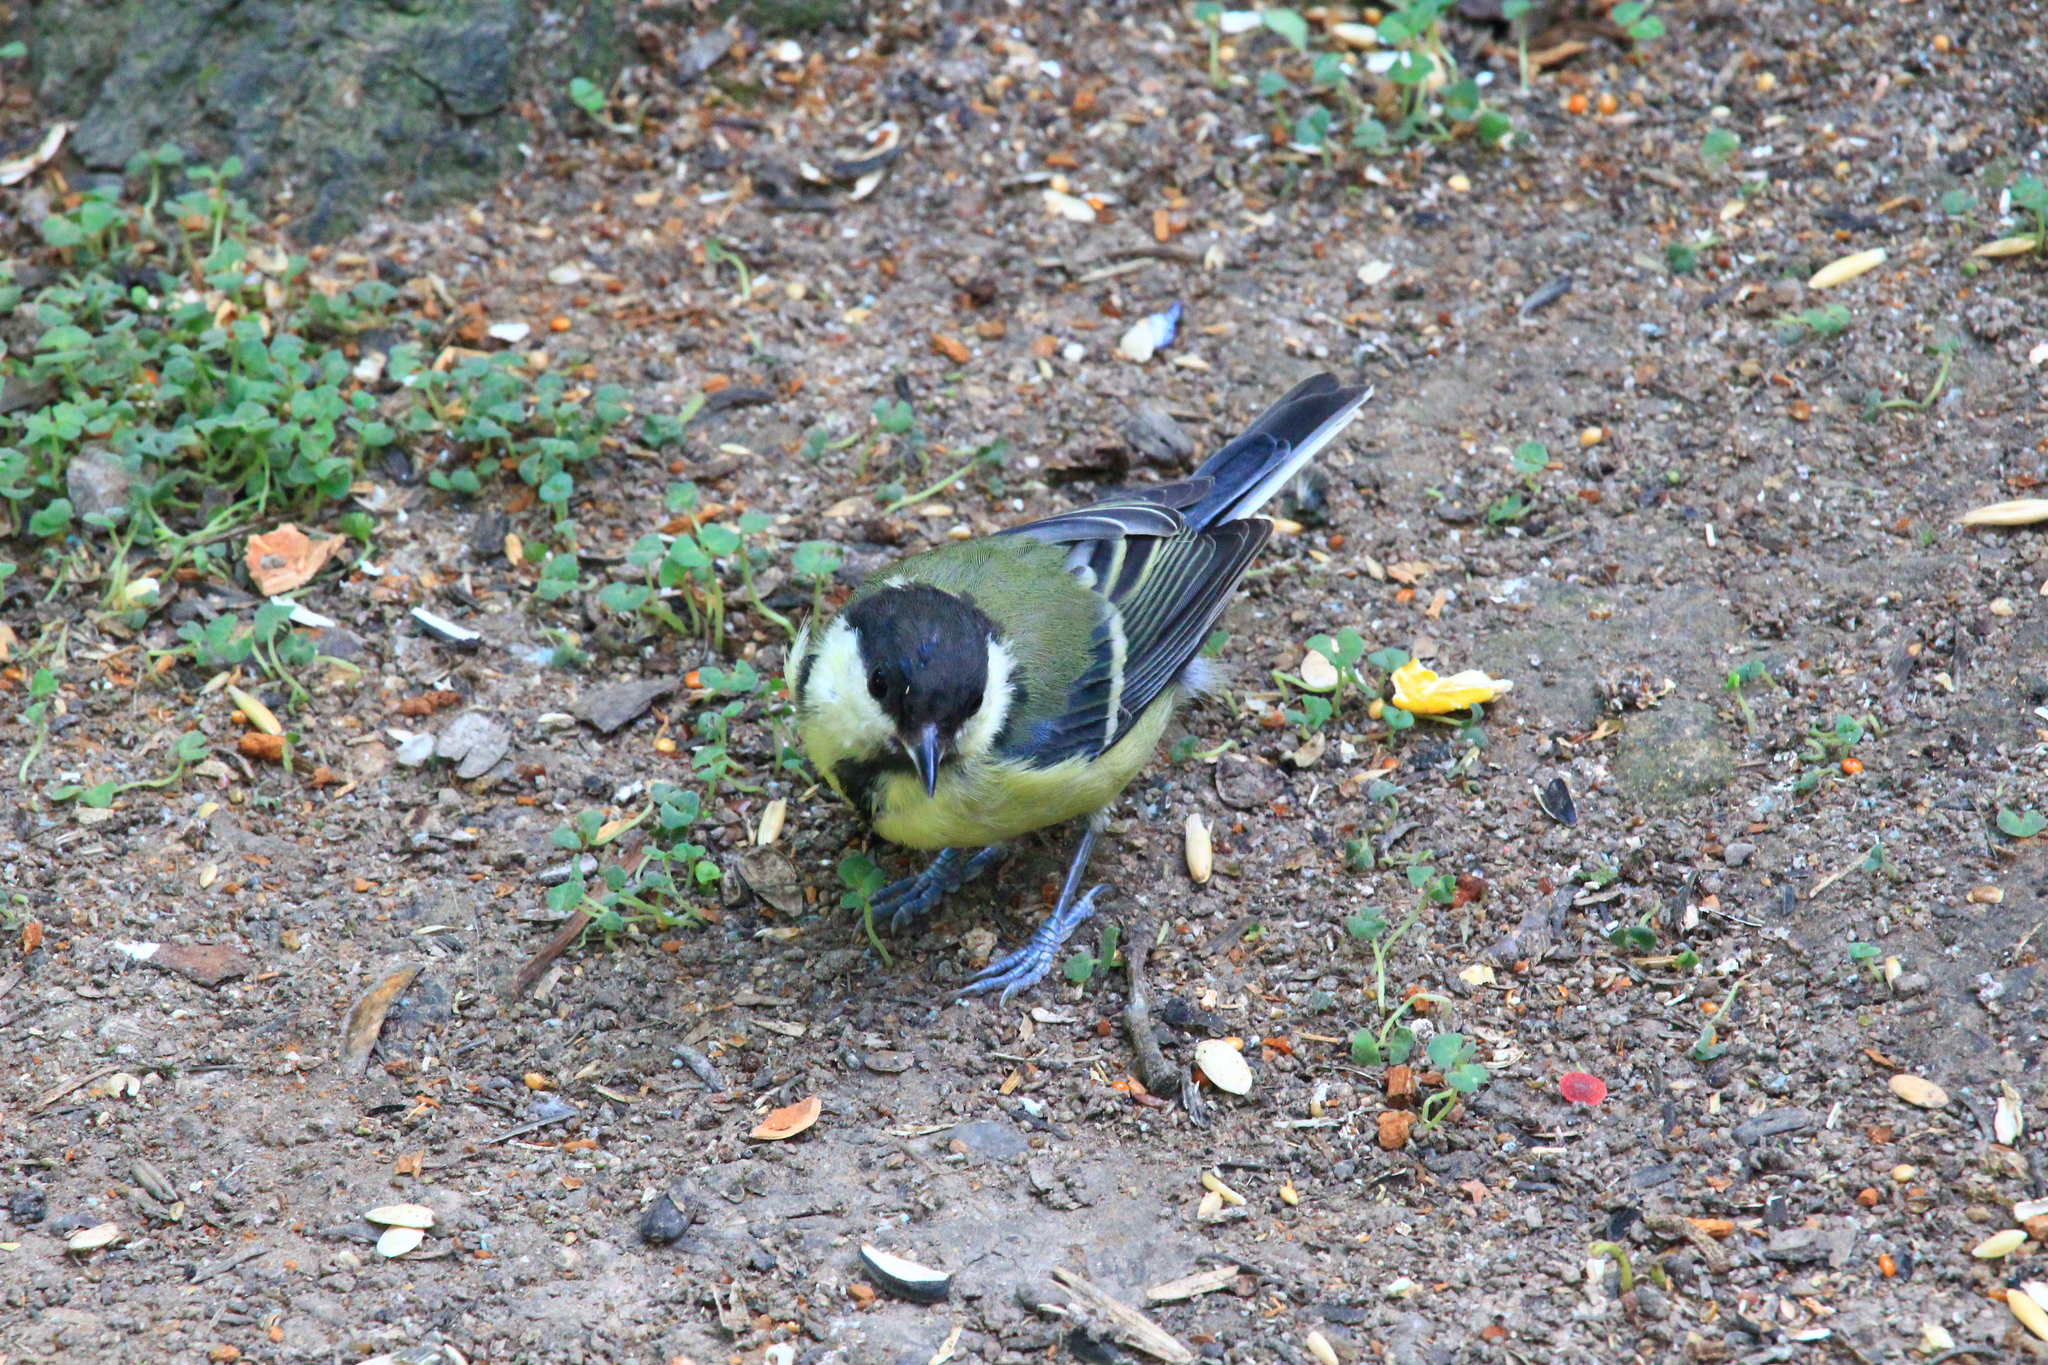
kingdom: Animalia
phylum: Chordata
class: Aves
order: Passeriformes
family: Paridae
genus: Parus
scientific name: Parus major
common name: Great tit
